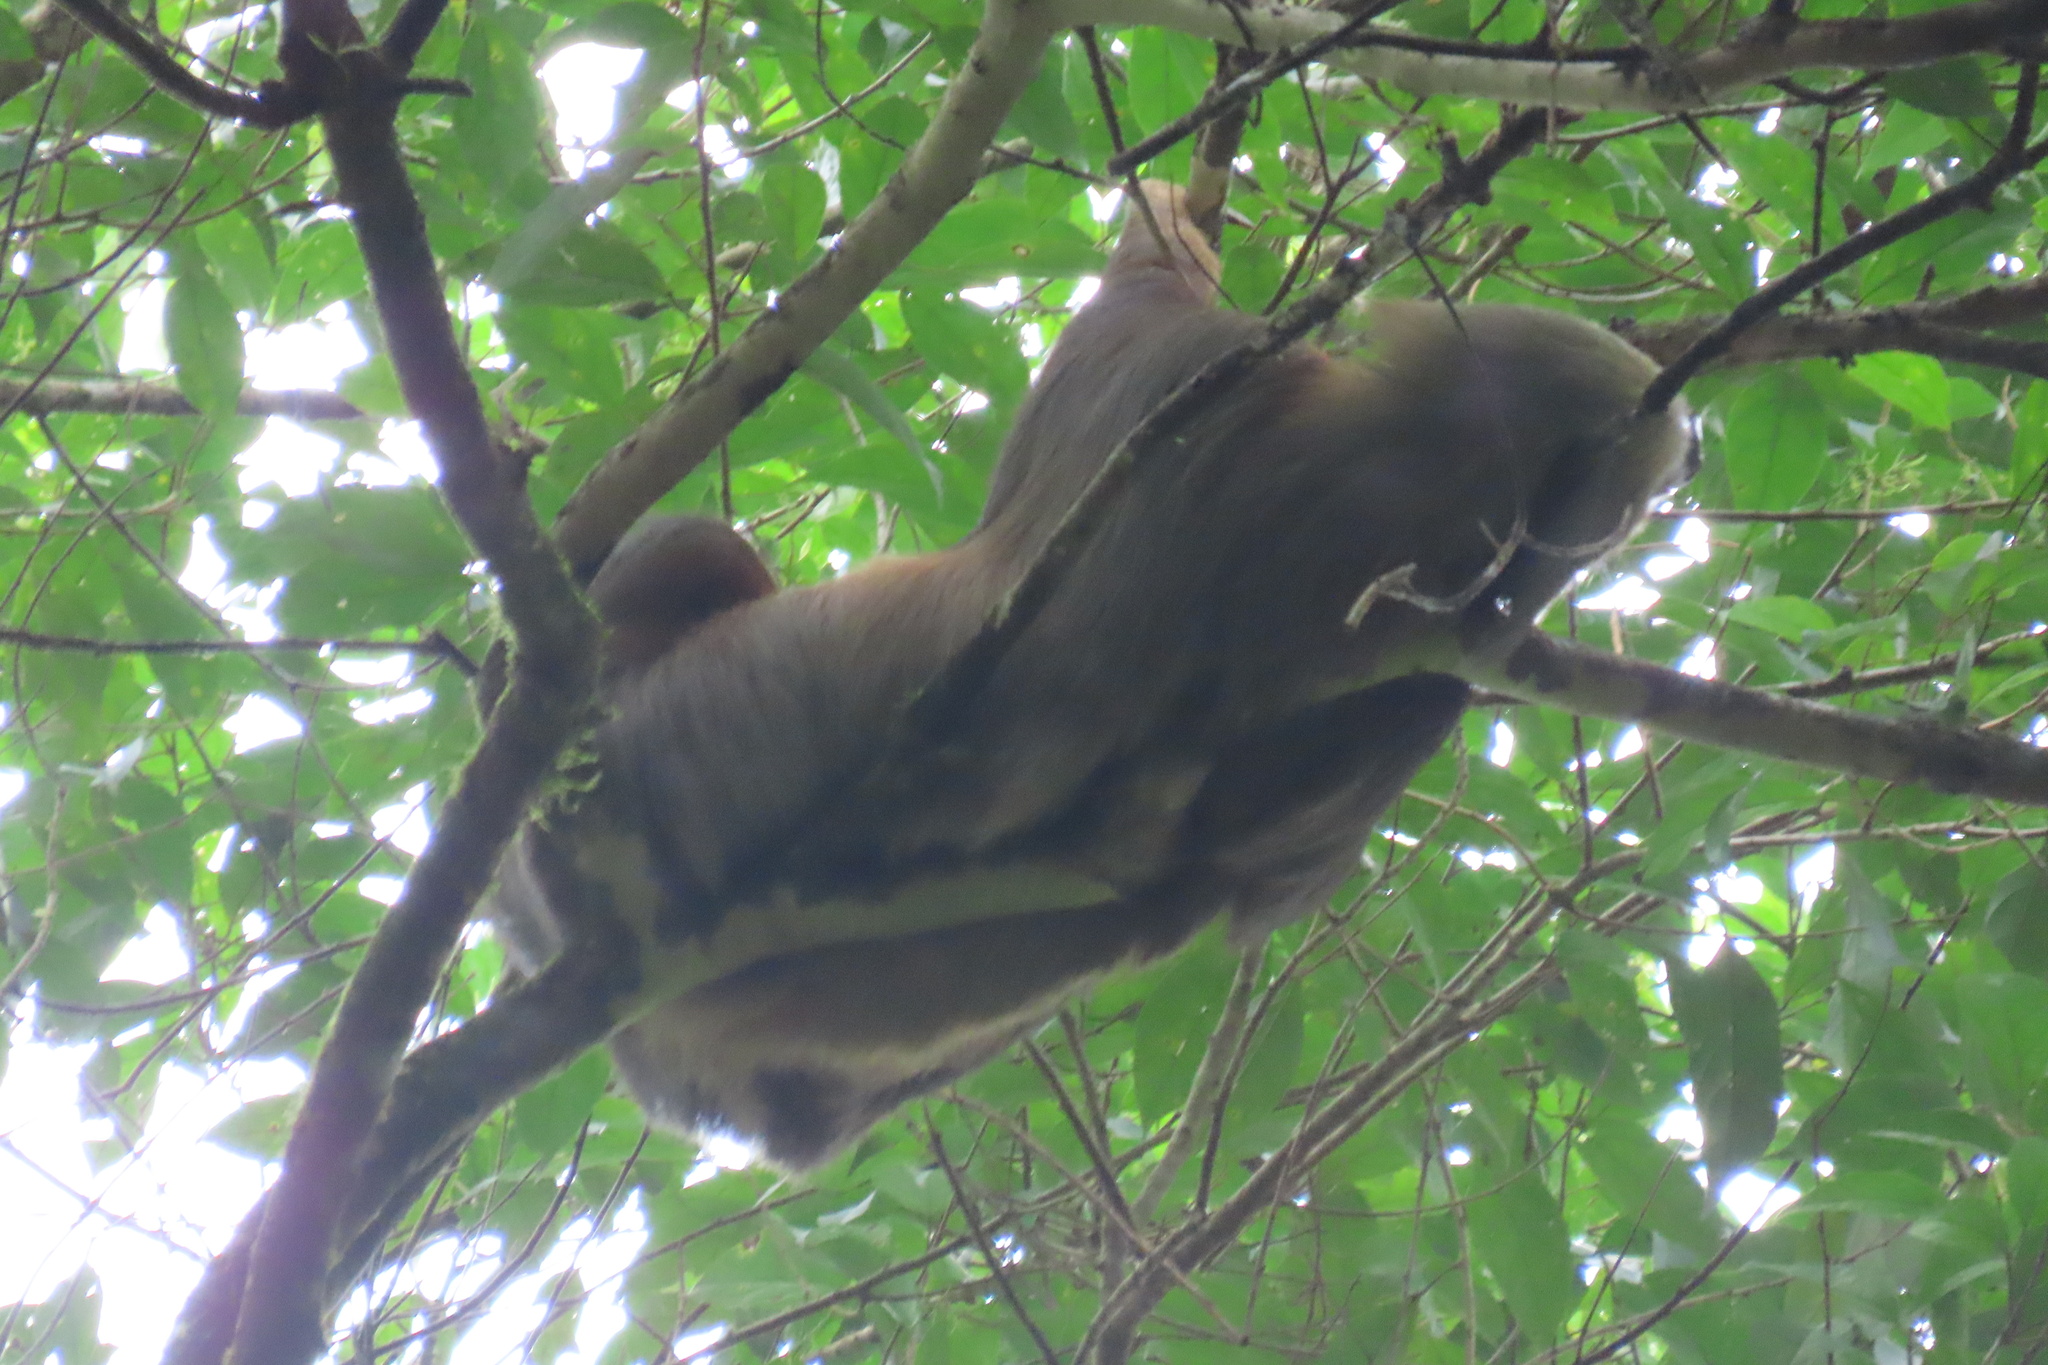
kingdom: Animalia
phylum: Chordata
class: Mammalia
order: Pilosa
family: Megalonychidae
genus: Choloepus
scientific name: Choloepus hoffmanni
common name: Hoffmann's two-toed sloth
